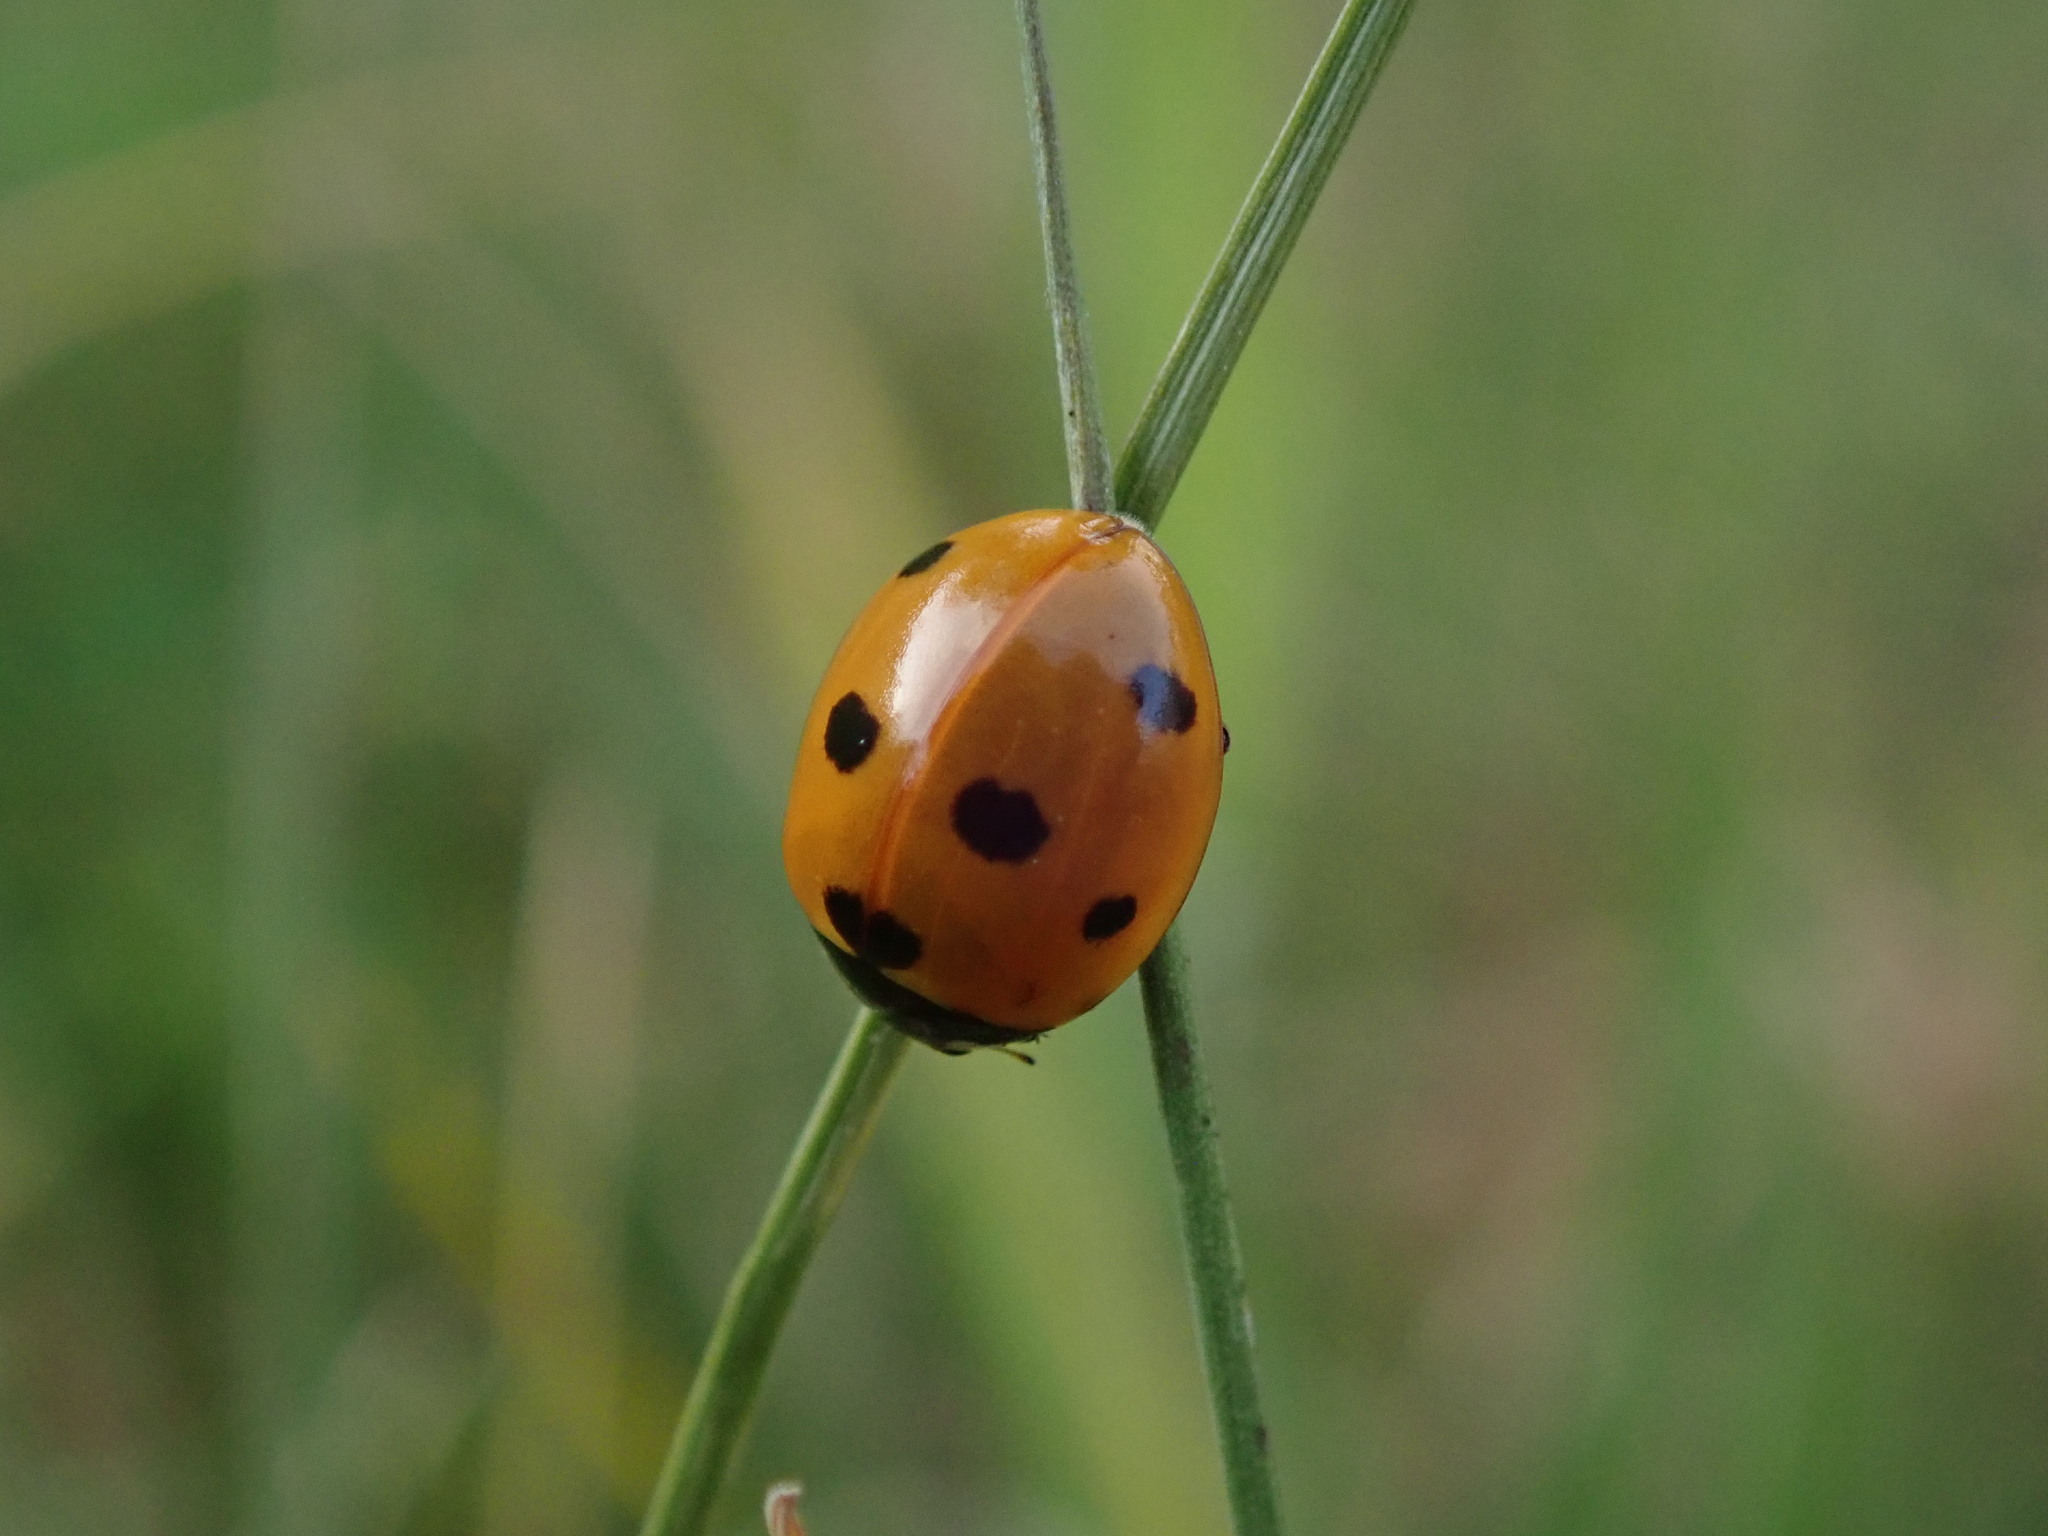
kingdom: Animalia
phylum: Arthropoda
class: Insecta
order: Coleoptera
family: Coccinellidae
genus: Coccinella
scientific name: Coccinella septempunctata
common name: Sevenspotted lady beetle
